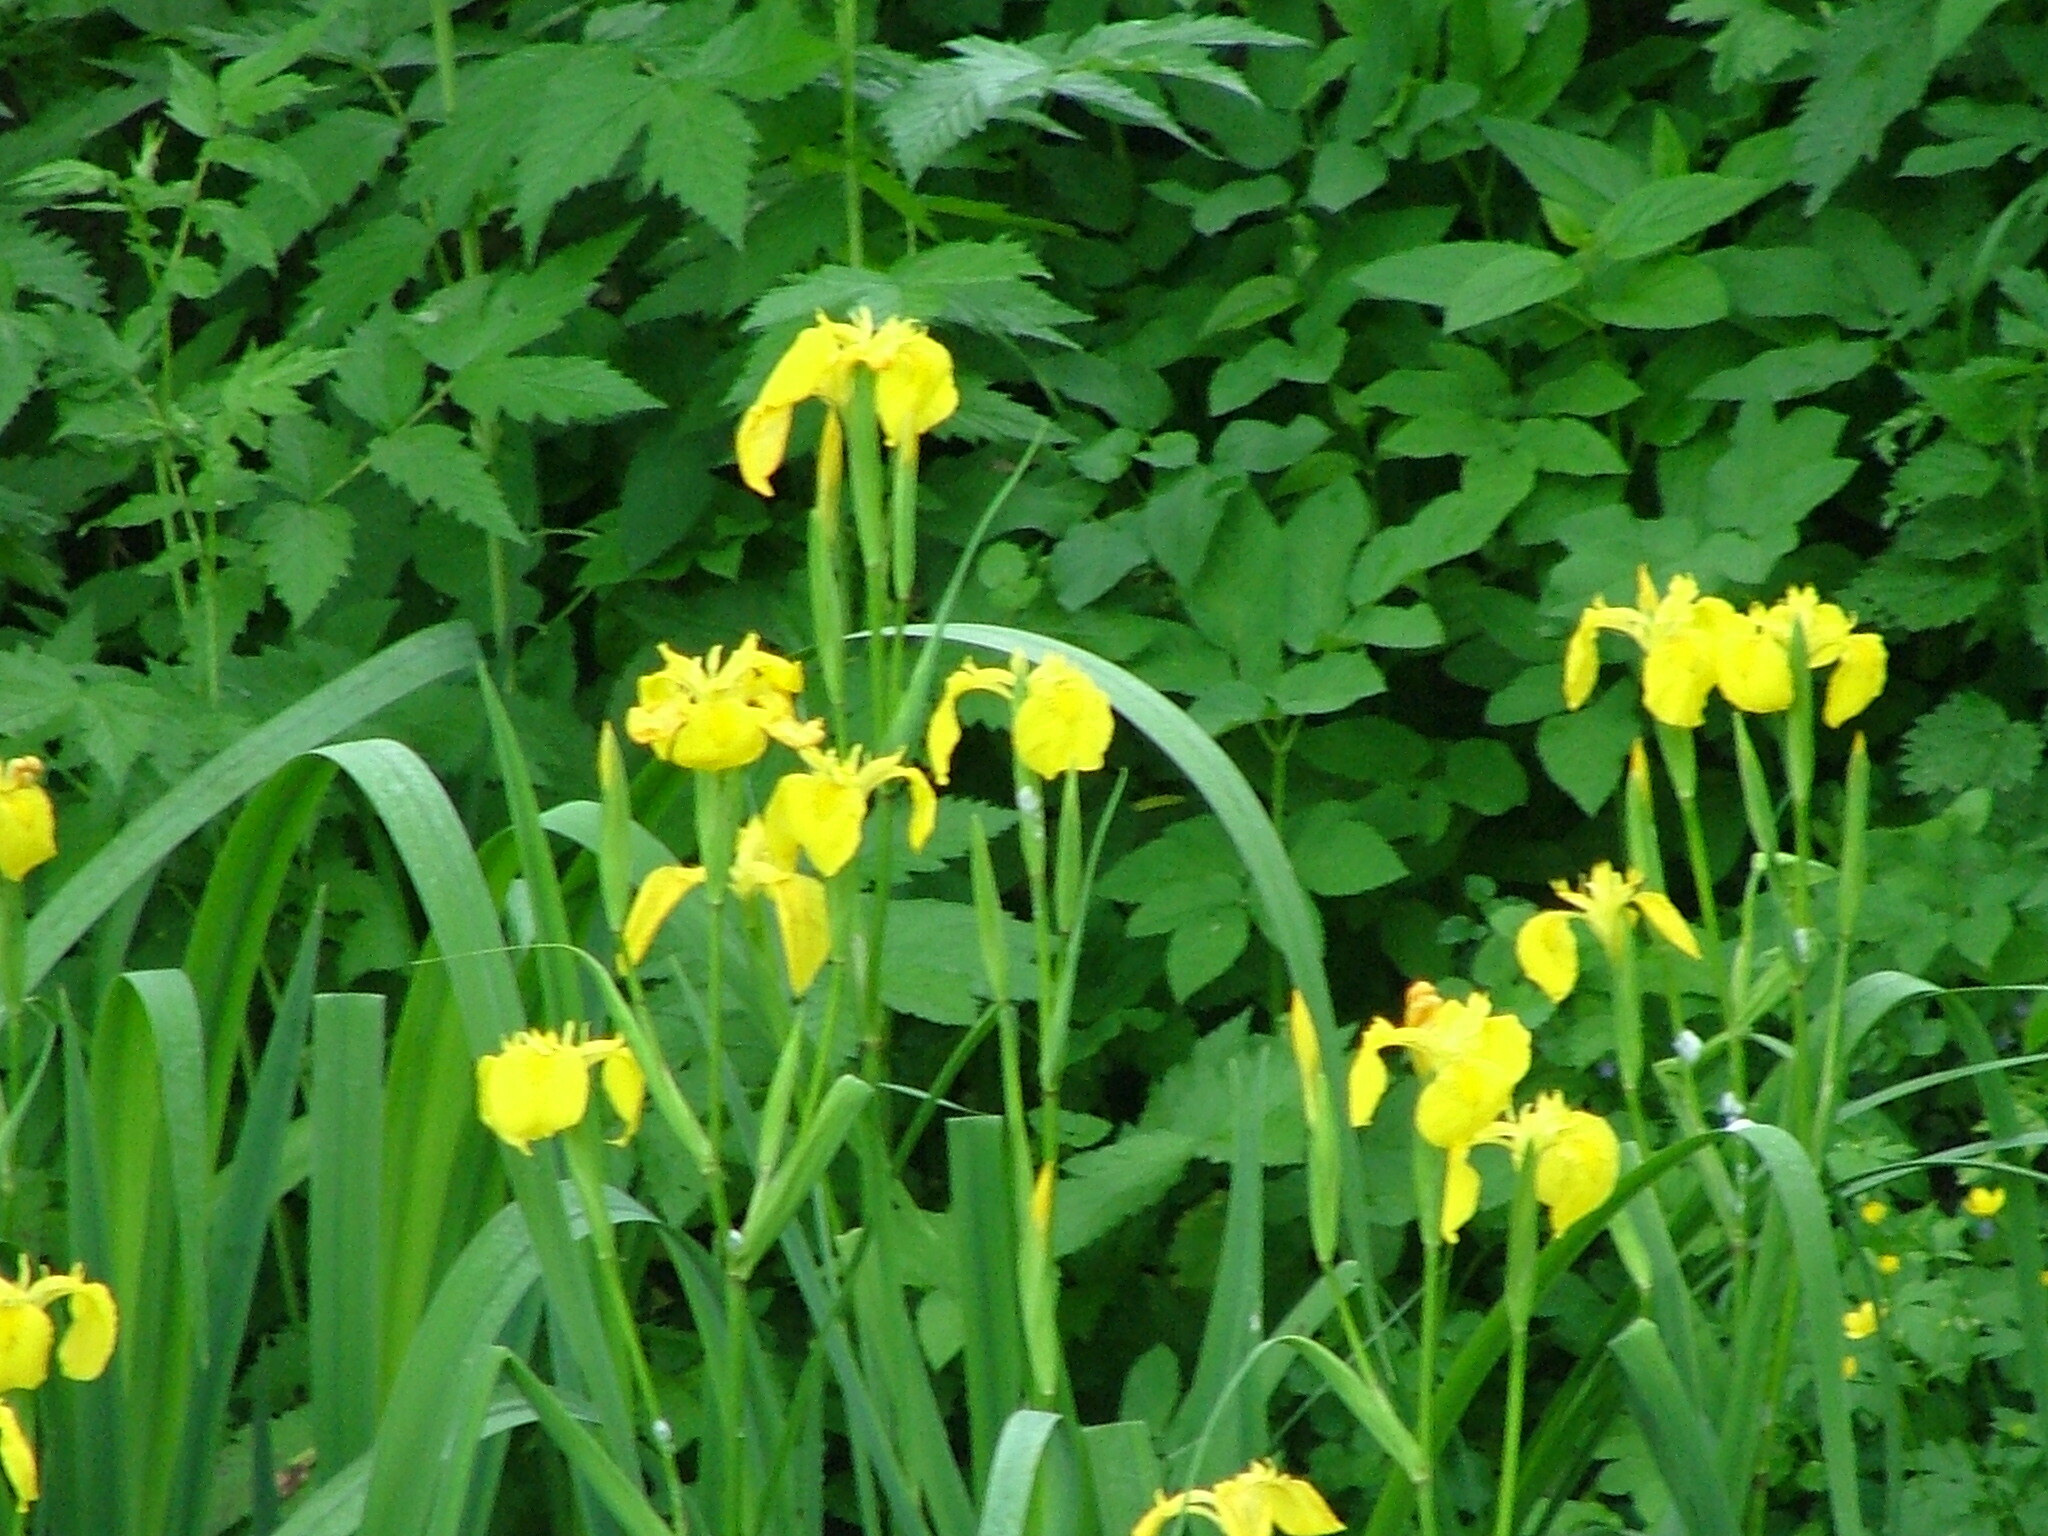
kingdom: Plantae
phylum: Tracheophyta
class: Liliopsida
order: Asparagales
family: Iridaceae
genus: Iris
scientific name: Iris pseudacorus
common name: Yellow flag
